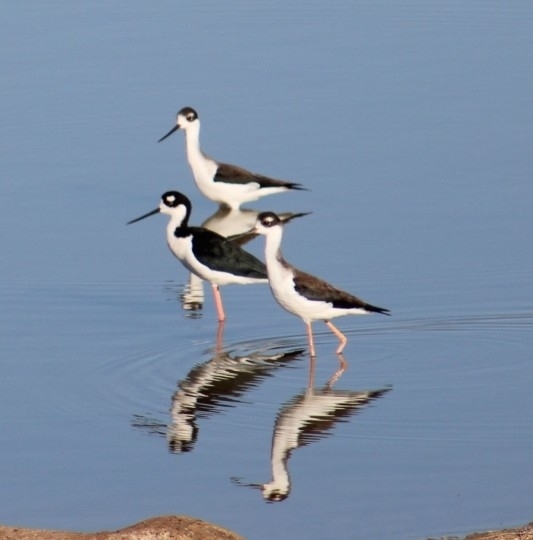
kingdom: Animalia
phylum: Chordata
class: Aves
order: Charadriiformes
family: Recurvirostridae
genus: Himantopus
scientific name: Himantopus mexicanus
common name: Black-necked stilt
